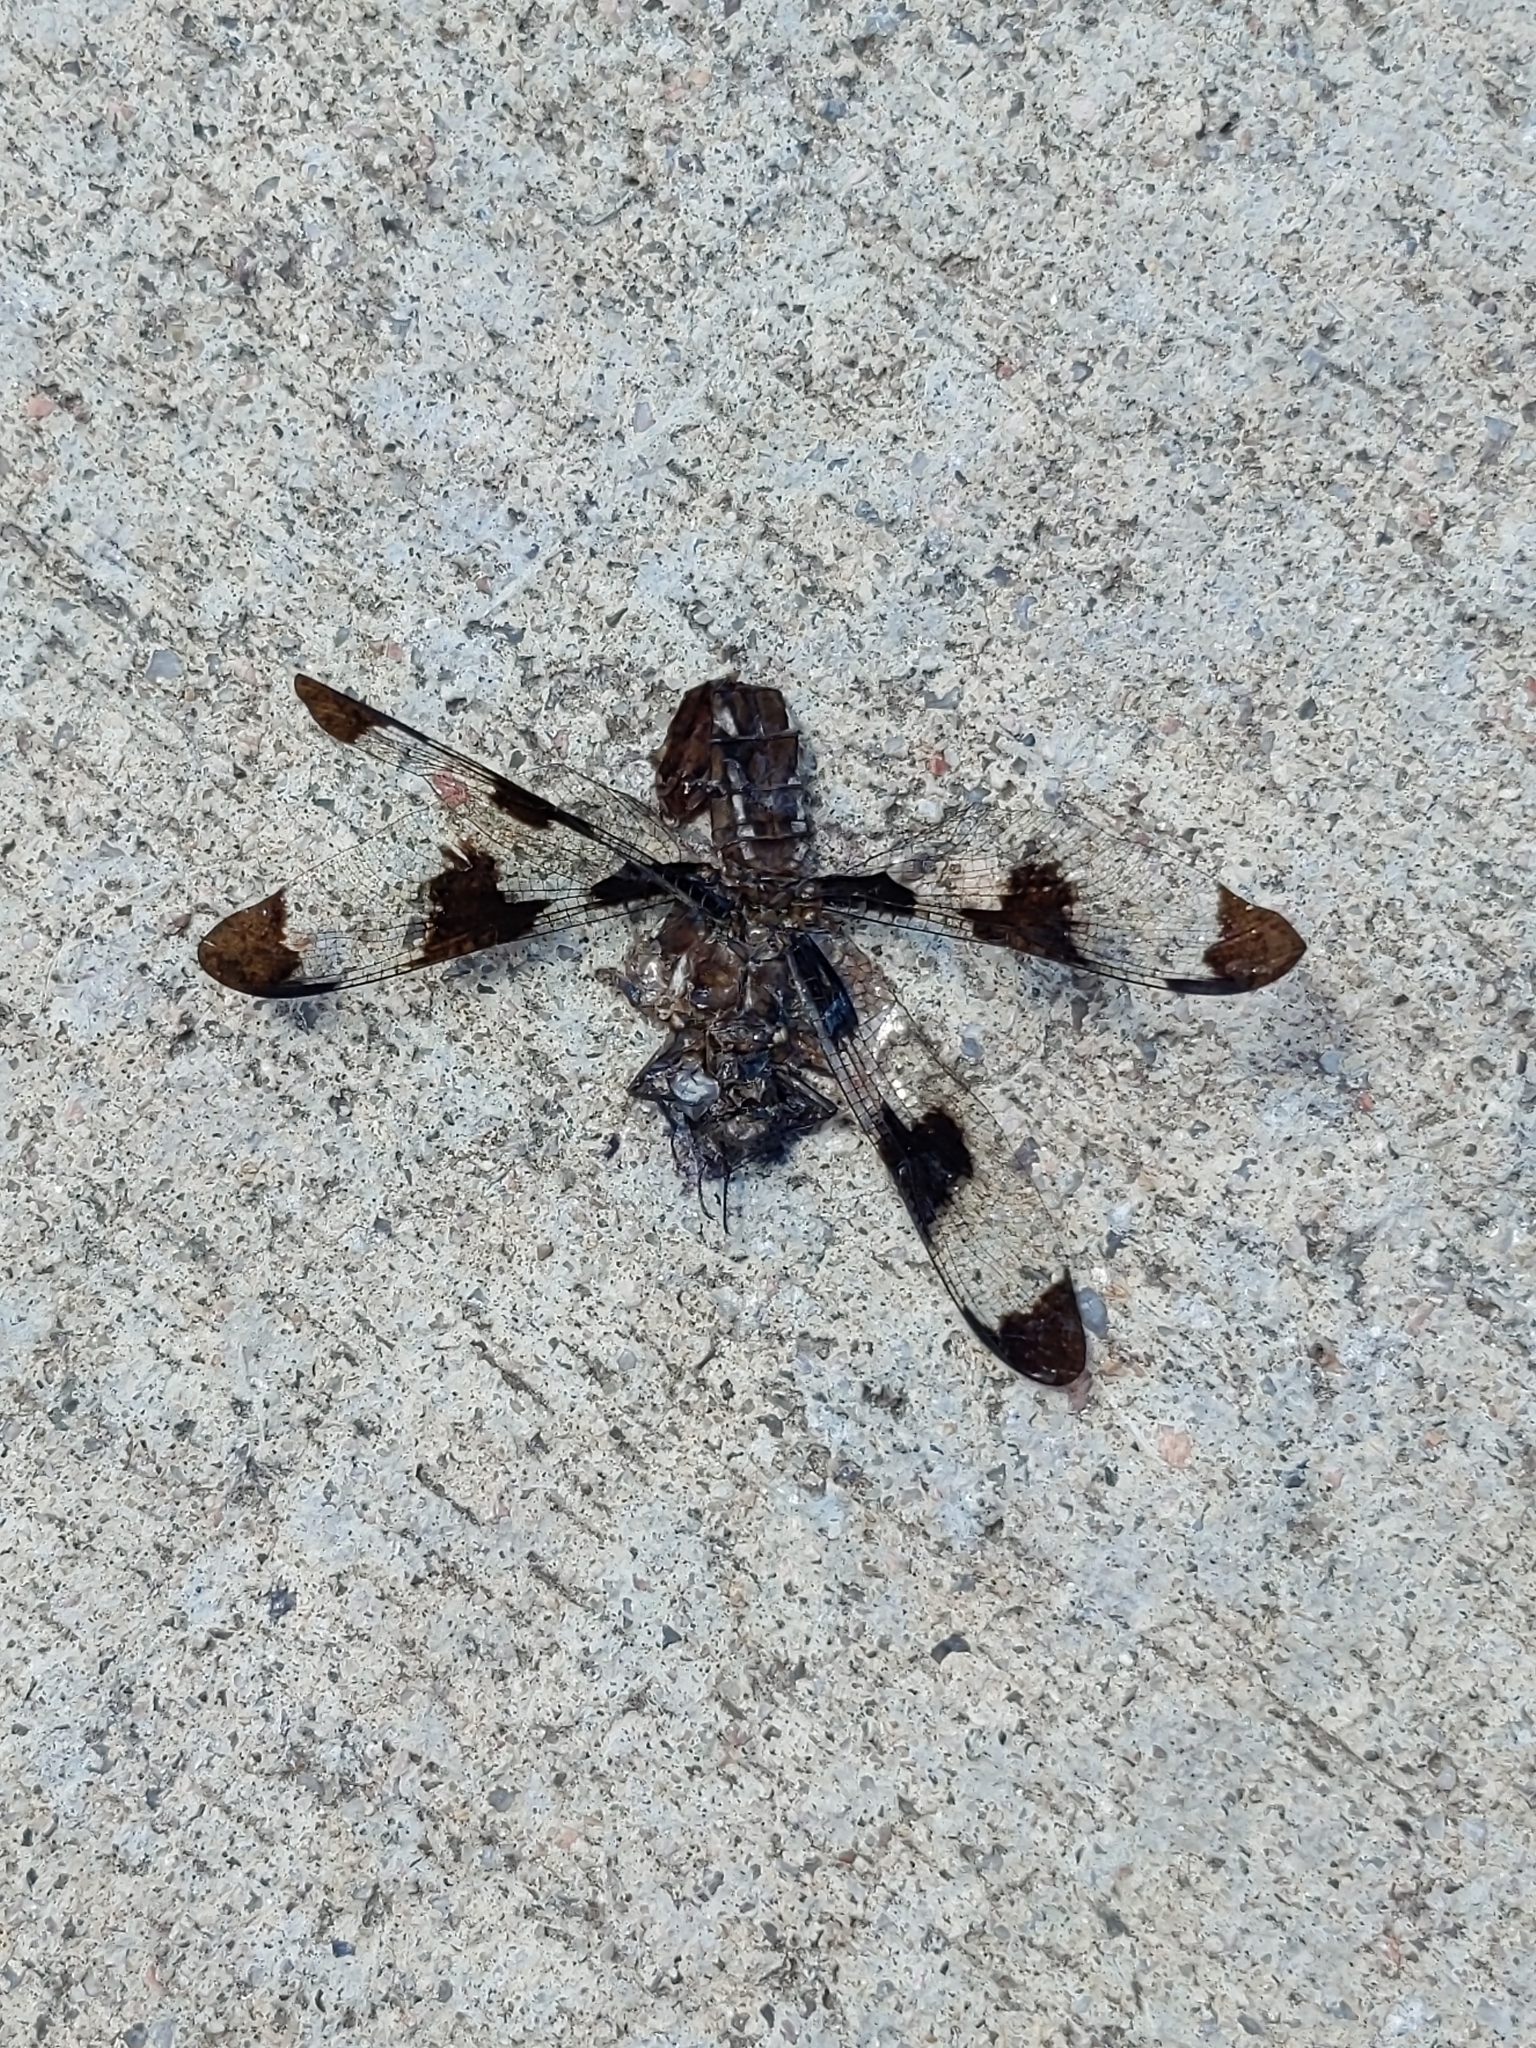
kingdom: Animalia
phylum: Arthropoda
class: Insecta
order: Odonata
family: Libellulidae
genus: Plathemis
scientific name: Plathemis lydia
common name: Common whitetail
